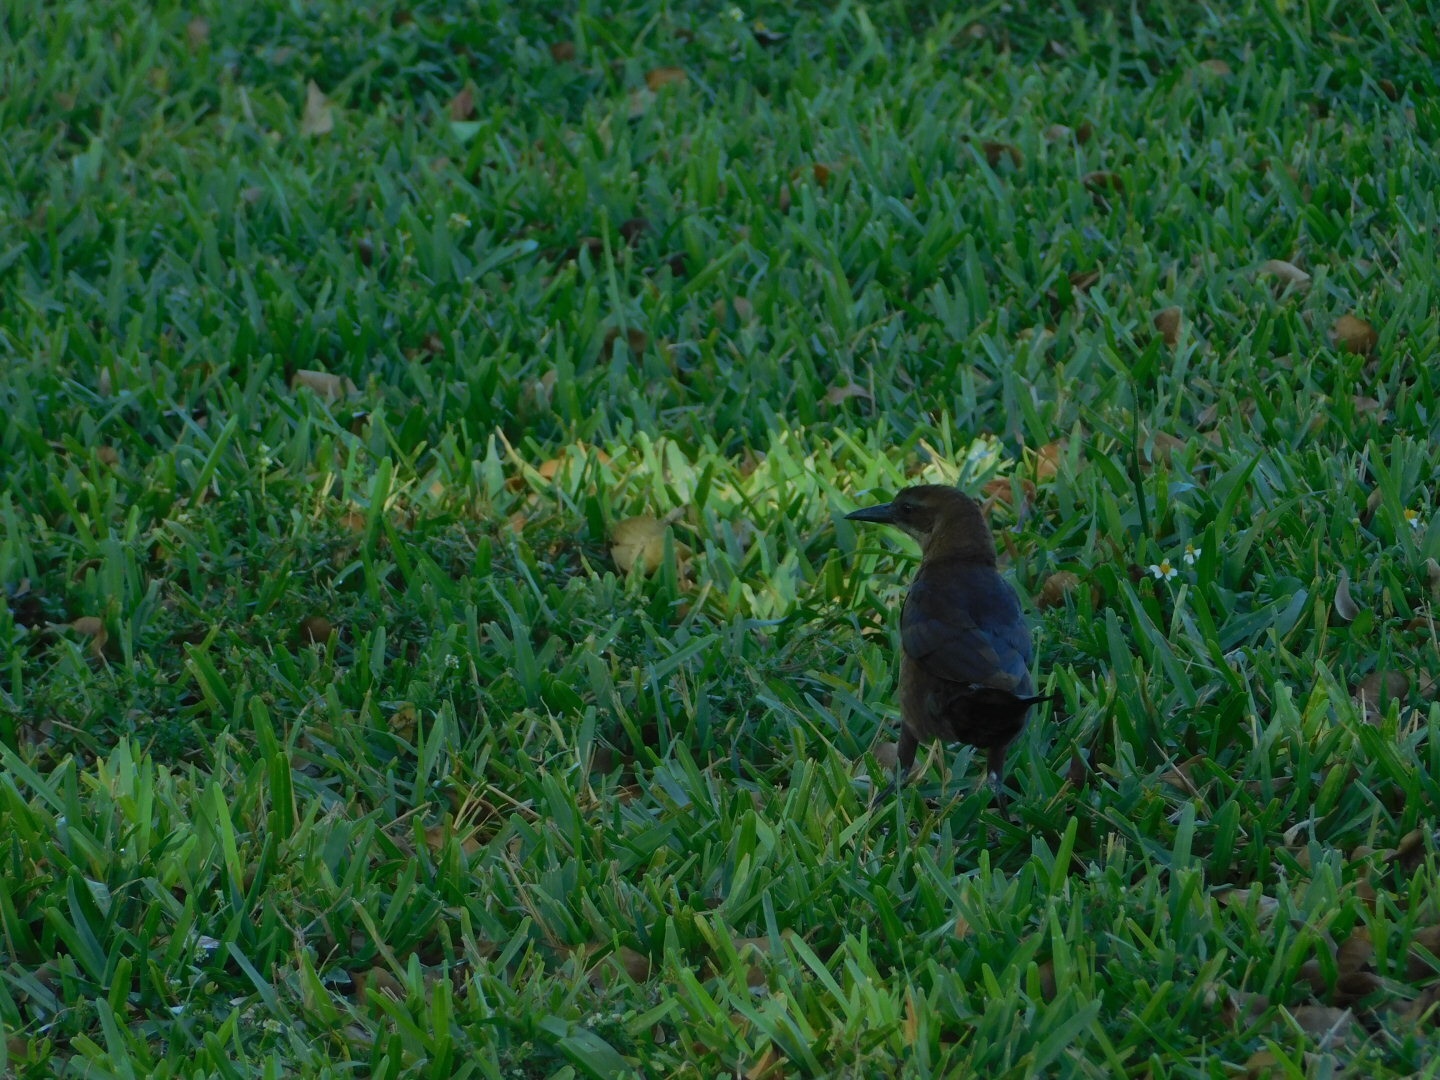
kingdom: Animalia
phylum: Chordata
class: Aves
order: Passeriformes
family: Icteridae
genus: Quiscalus
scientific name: Quiscalus major
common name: Boat-tailed grackle
